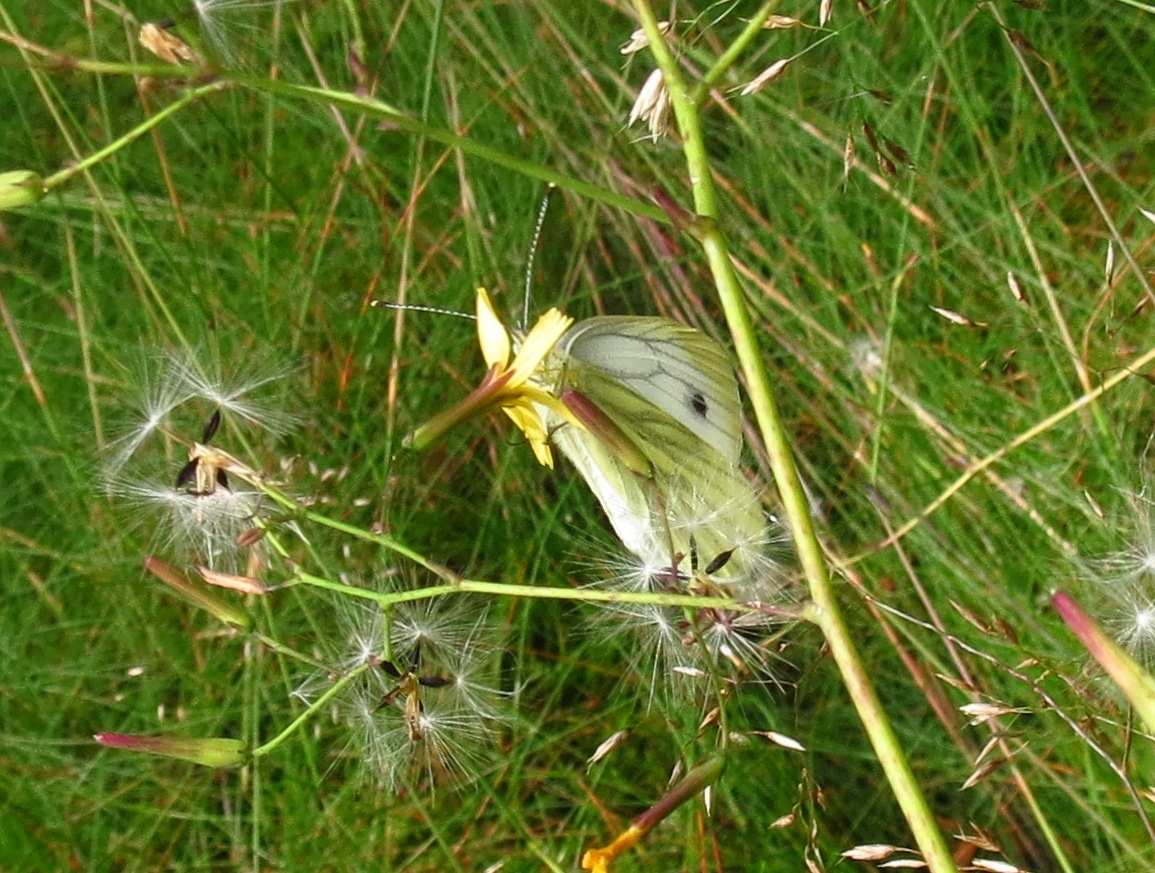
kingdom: Animalia
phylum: Arthropoda
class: Insecta
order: Lepidoptera
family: Pieridae
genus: Pieris
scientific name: Pieris napi
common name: Green-veined white
